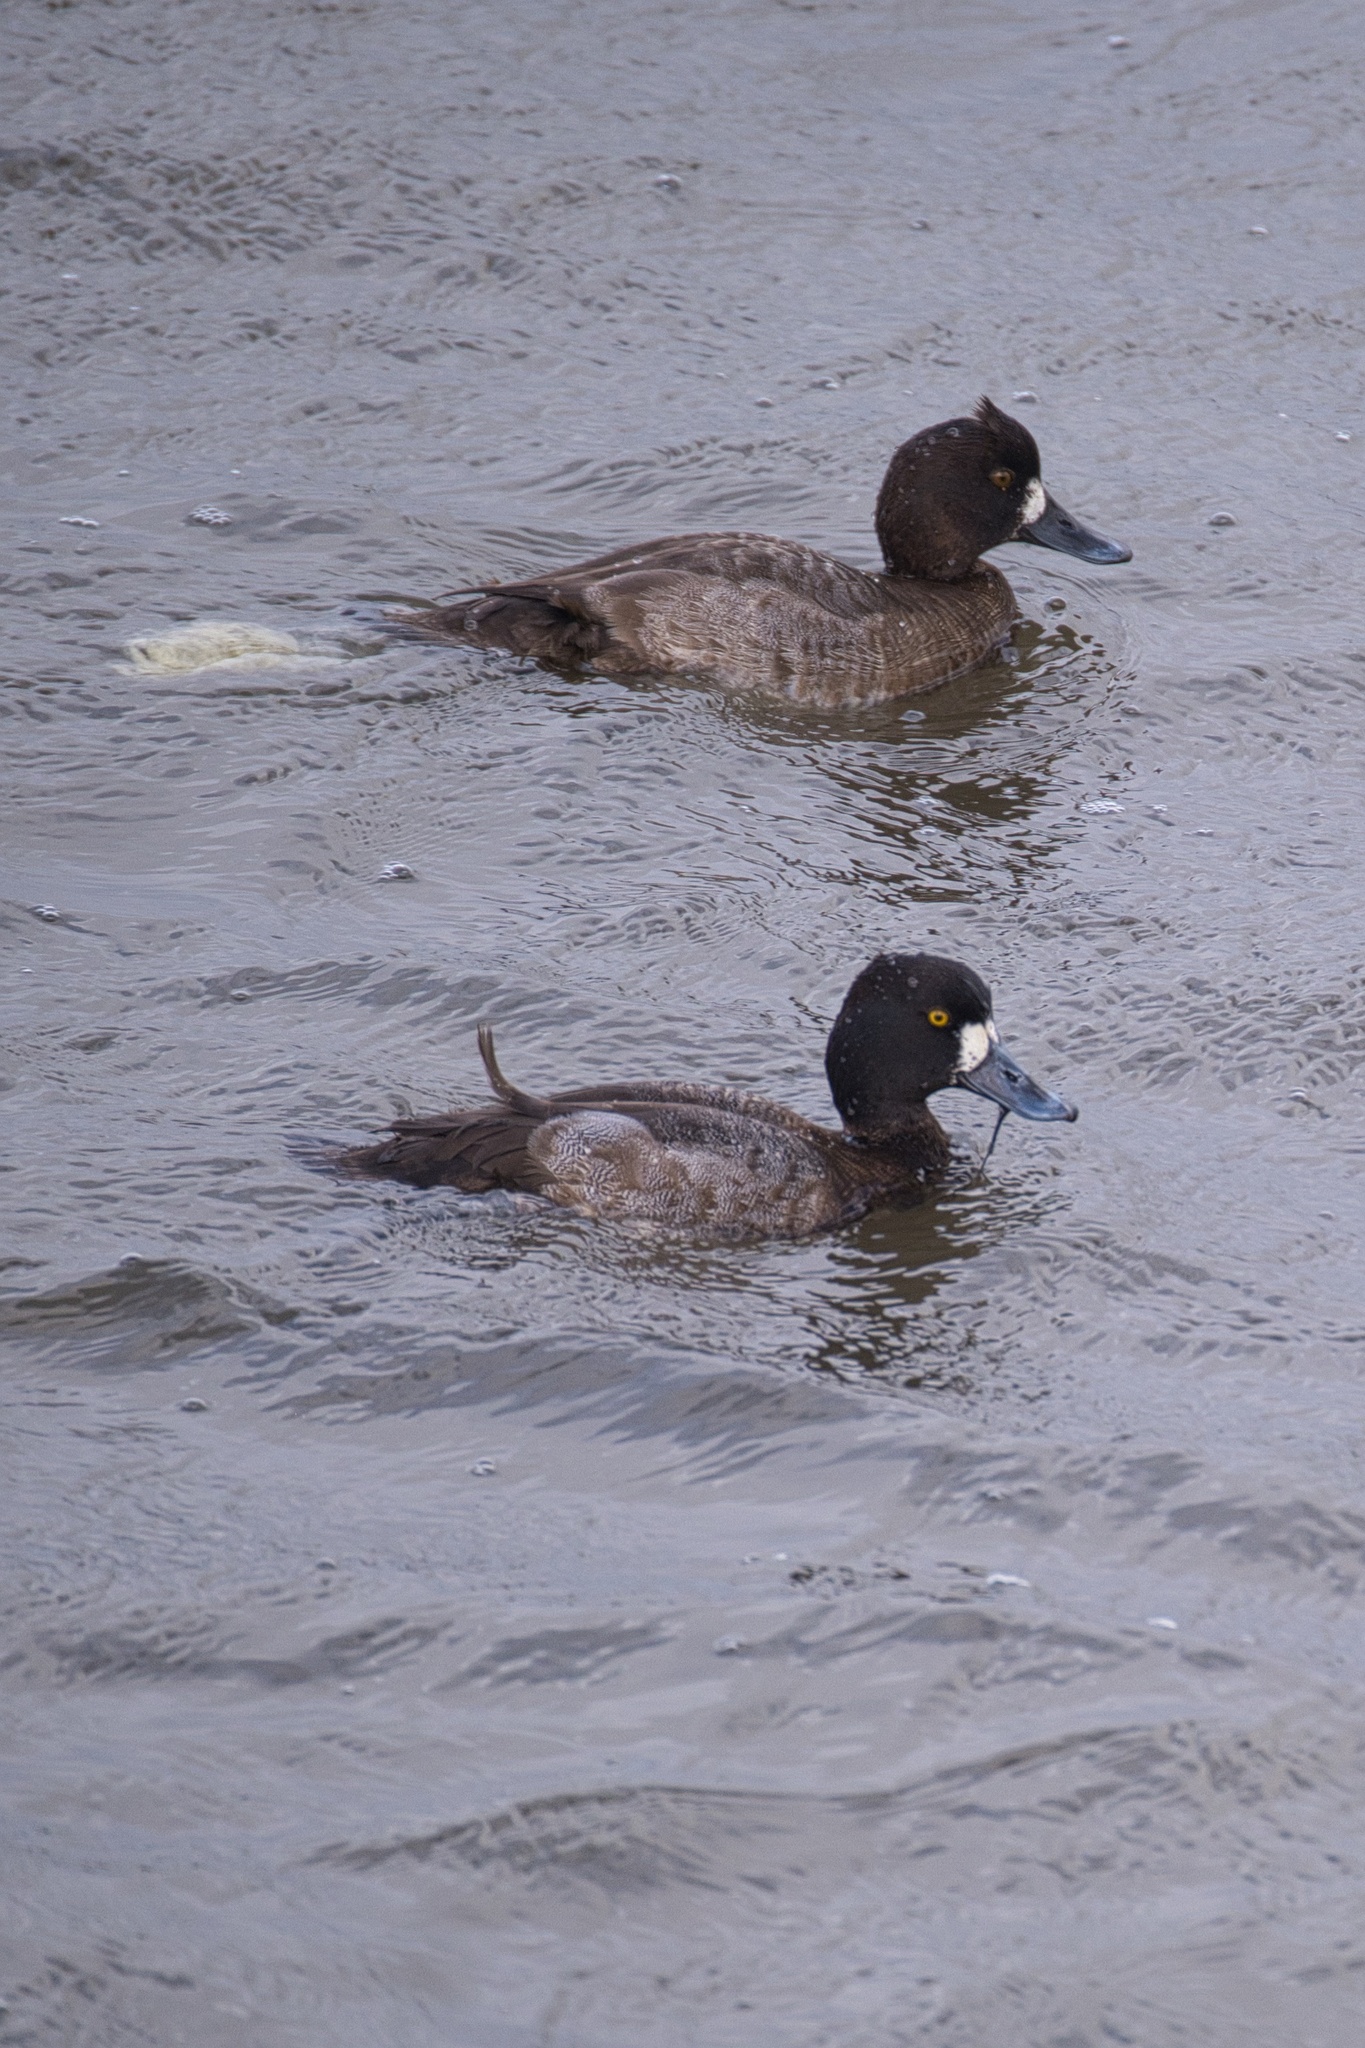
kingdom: Animalia
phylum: Chordata
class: Aves
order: Anseriformes
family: Anatidae
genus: Aythya
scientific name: Aythya affinis
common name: Lesser scaup
